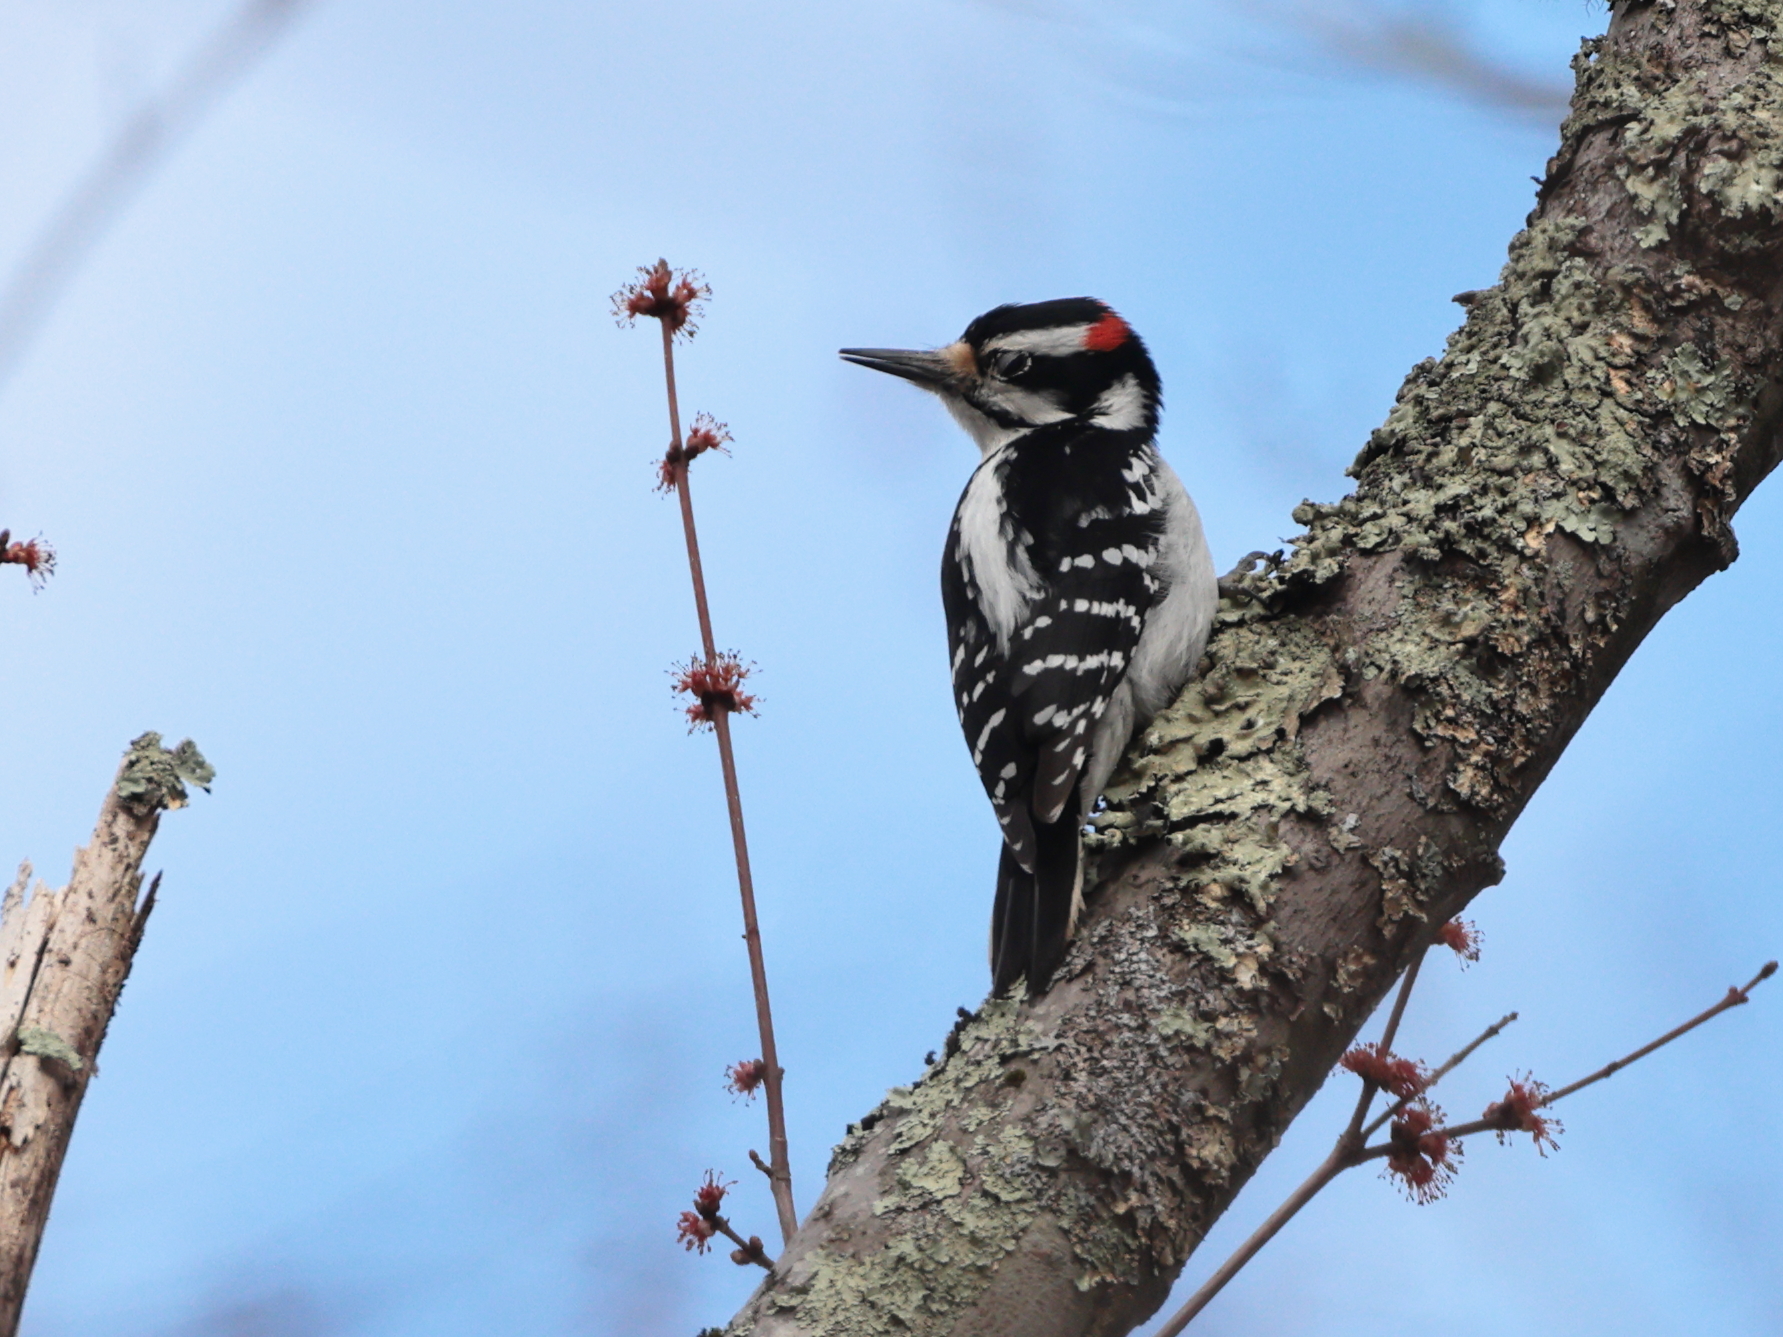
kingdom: Animalia
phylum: Chordata
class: Aves
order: Piciformes
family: Picidae
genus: Leuconotopicus
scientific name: Leuconotopicus villosus
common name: Hairy woodpecker
